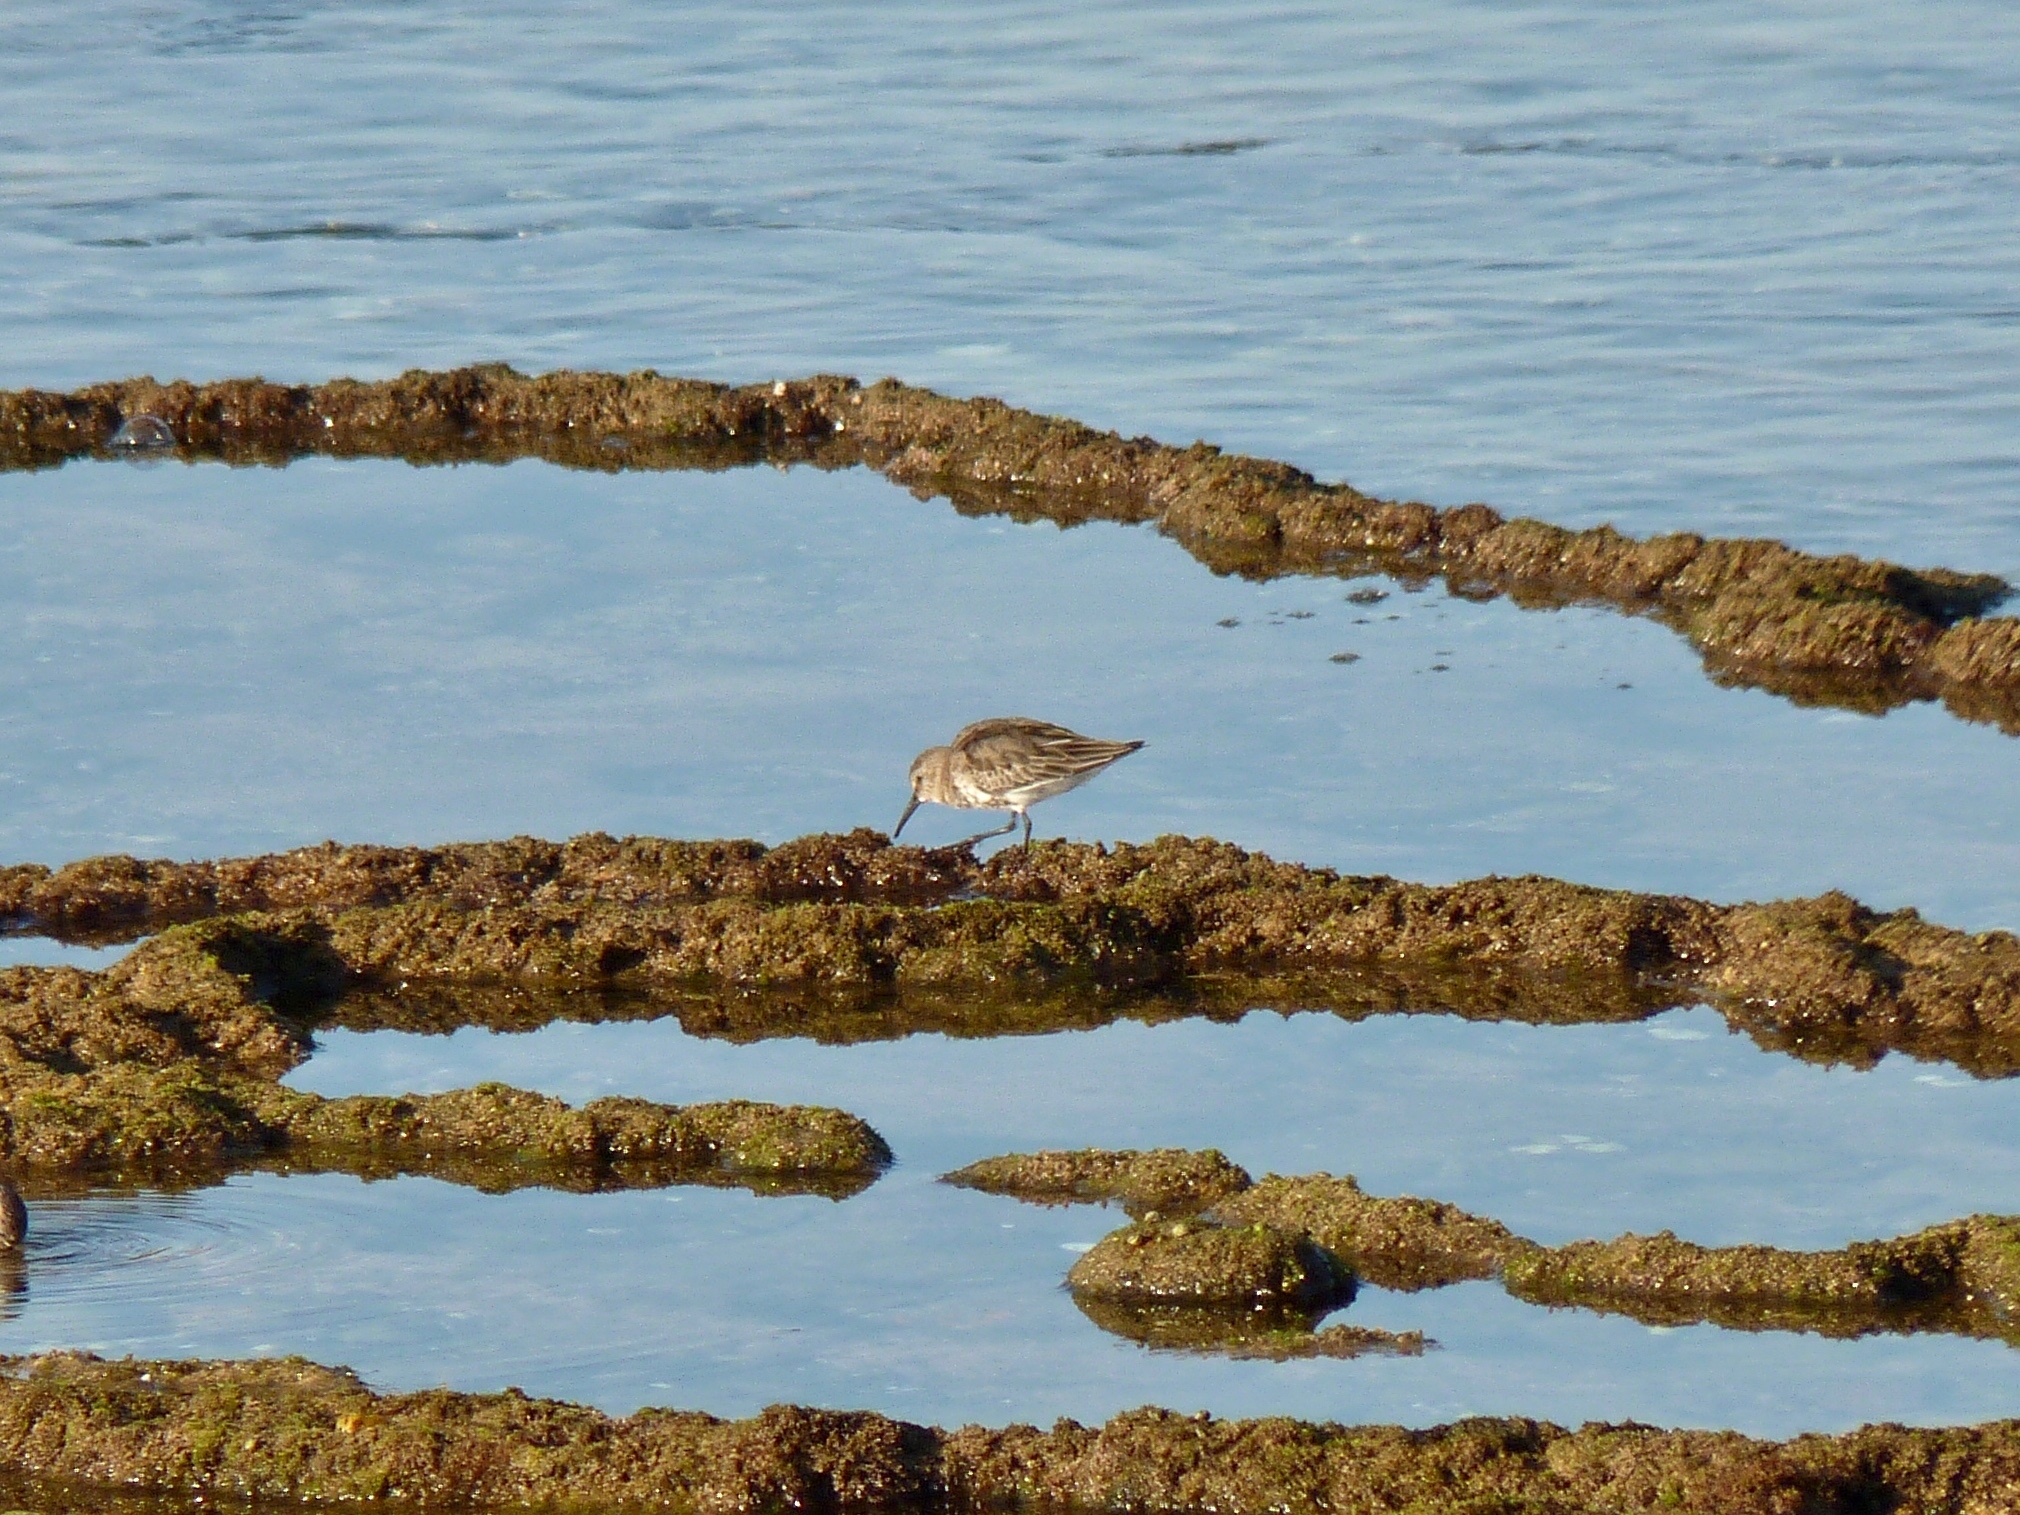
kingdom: Animalia
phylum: Chordata
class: Aves
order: Charadriiformes
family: Scolopacidae
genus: Calidris
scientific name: Calidris alpina
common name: Dunlin
